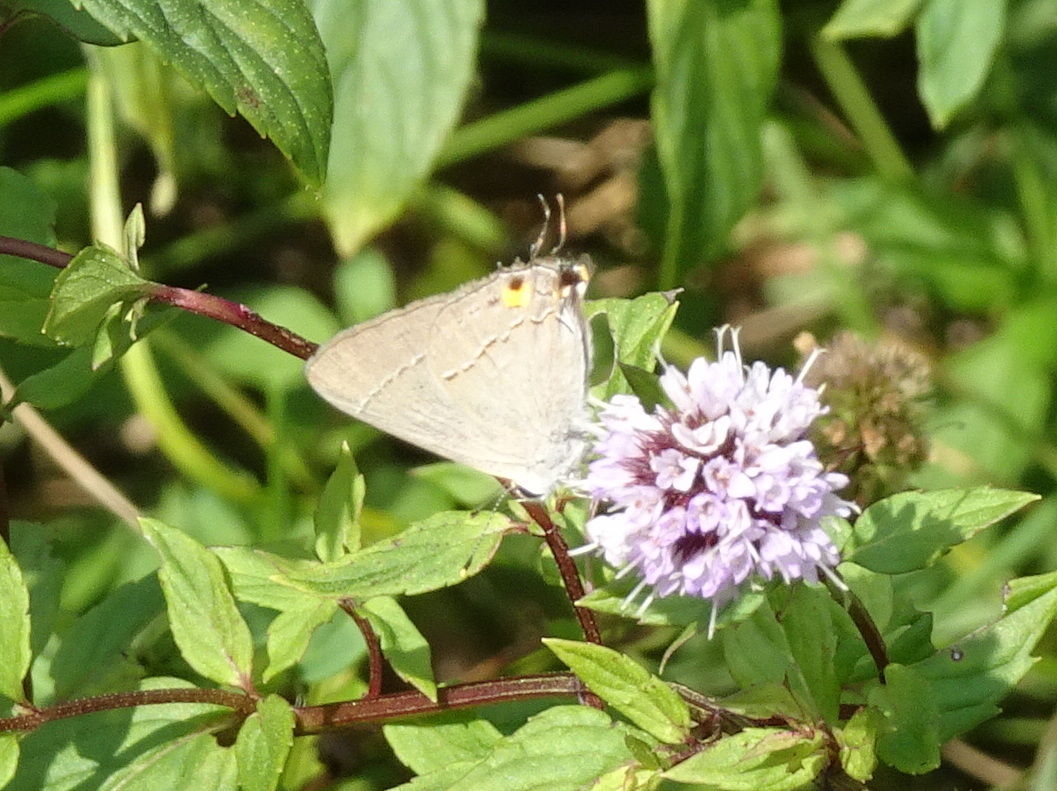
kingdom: Animalia
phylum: Arthropoda
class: Insecta
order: Lepidoptera
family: Lycaenidae
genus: Strymon
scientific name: Strymon melinus
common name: Gray hairstreak
